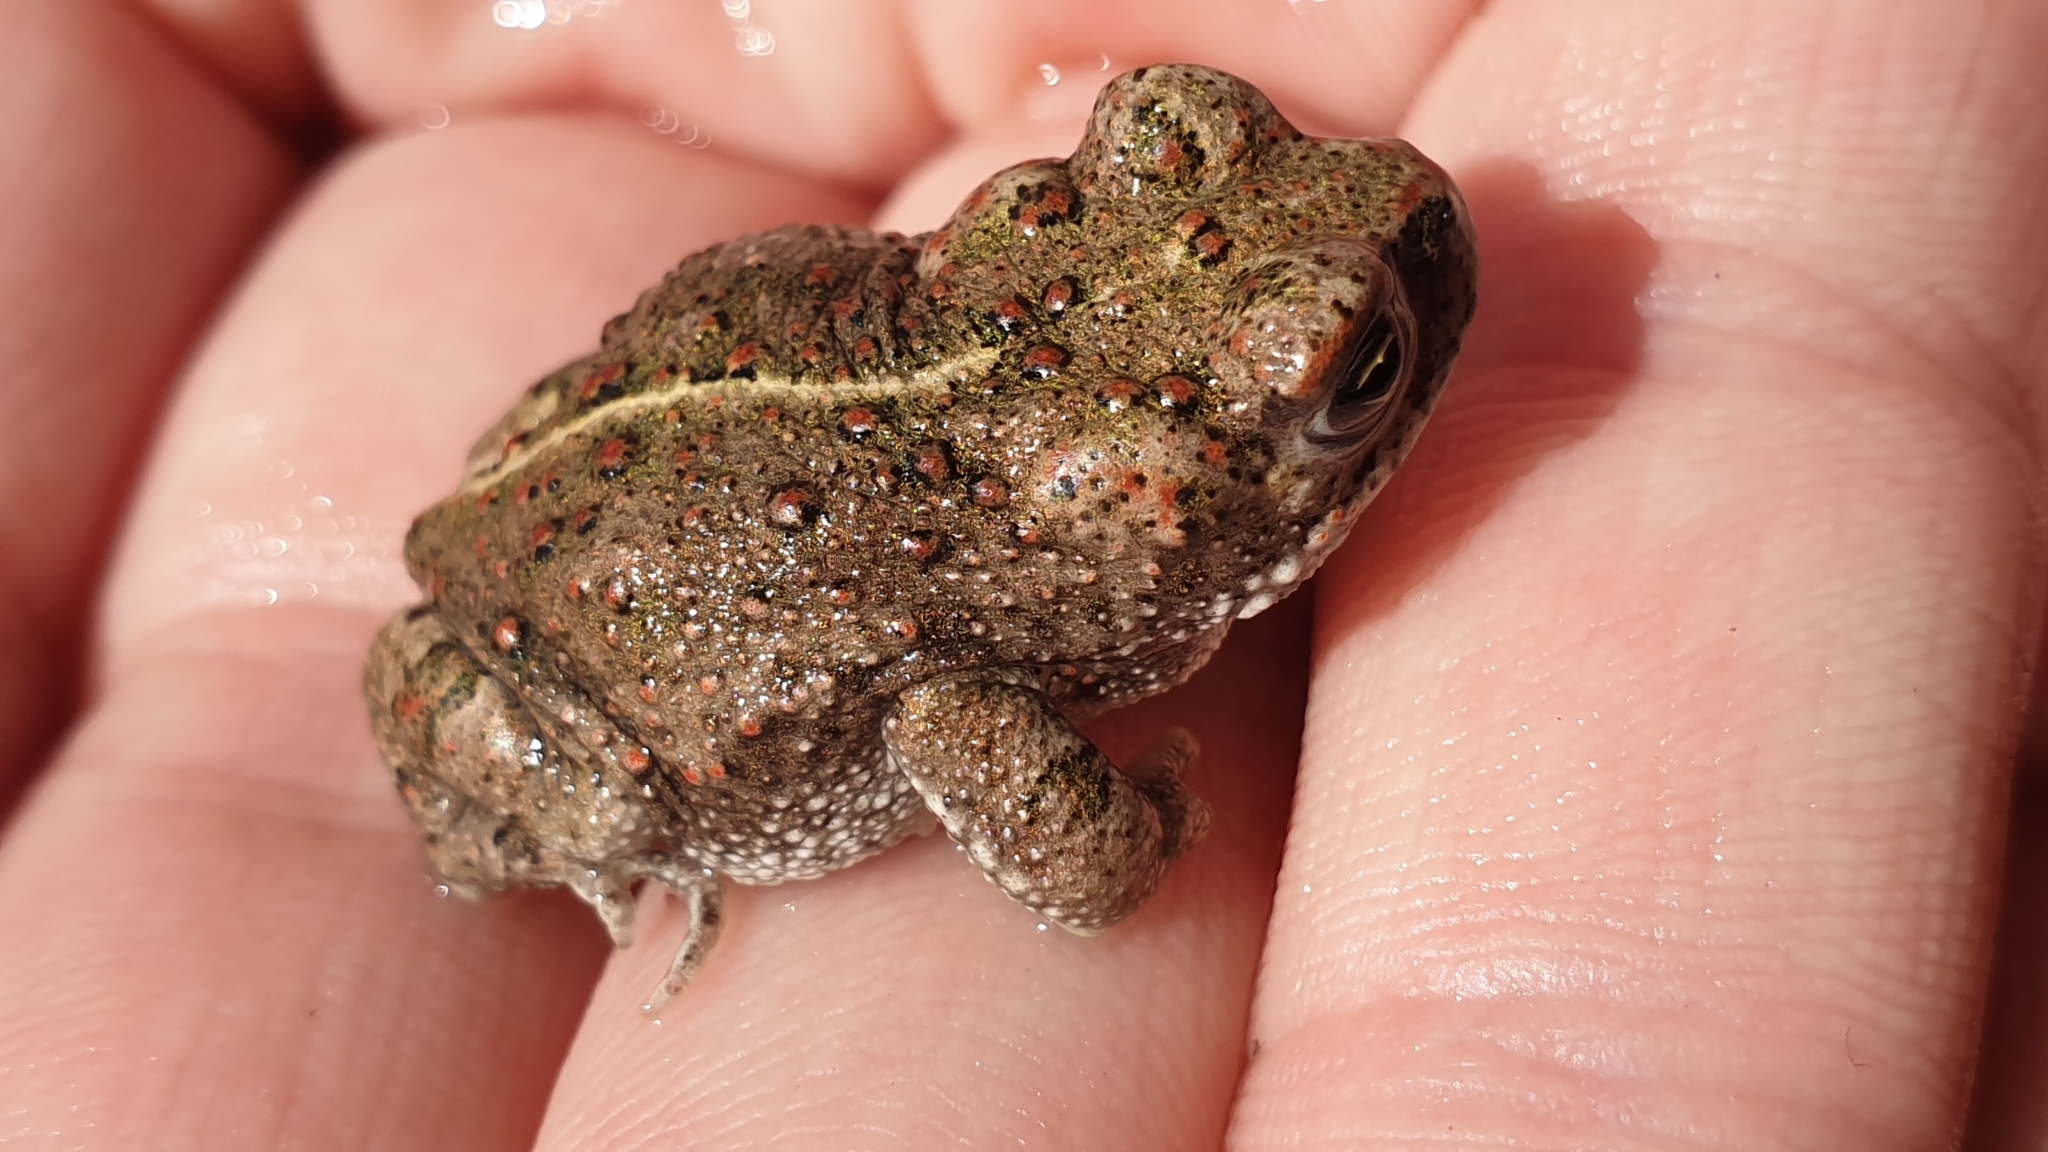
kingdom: Animalia
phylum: Chordata
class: Amphibia
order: Anura
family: Bufonidae
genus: Epidalea
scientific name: Epidalea calamita
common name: Natterjack toad
